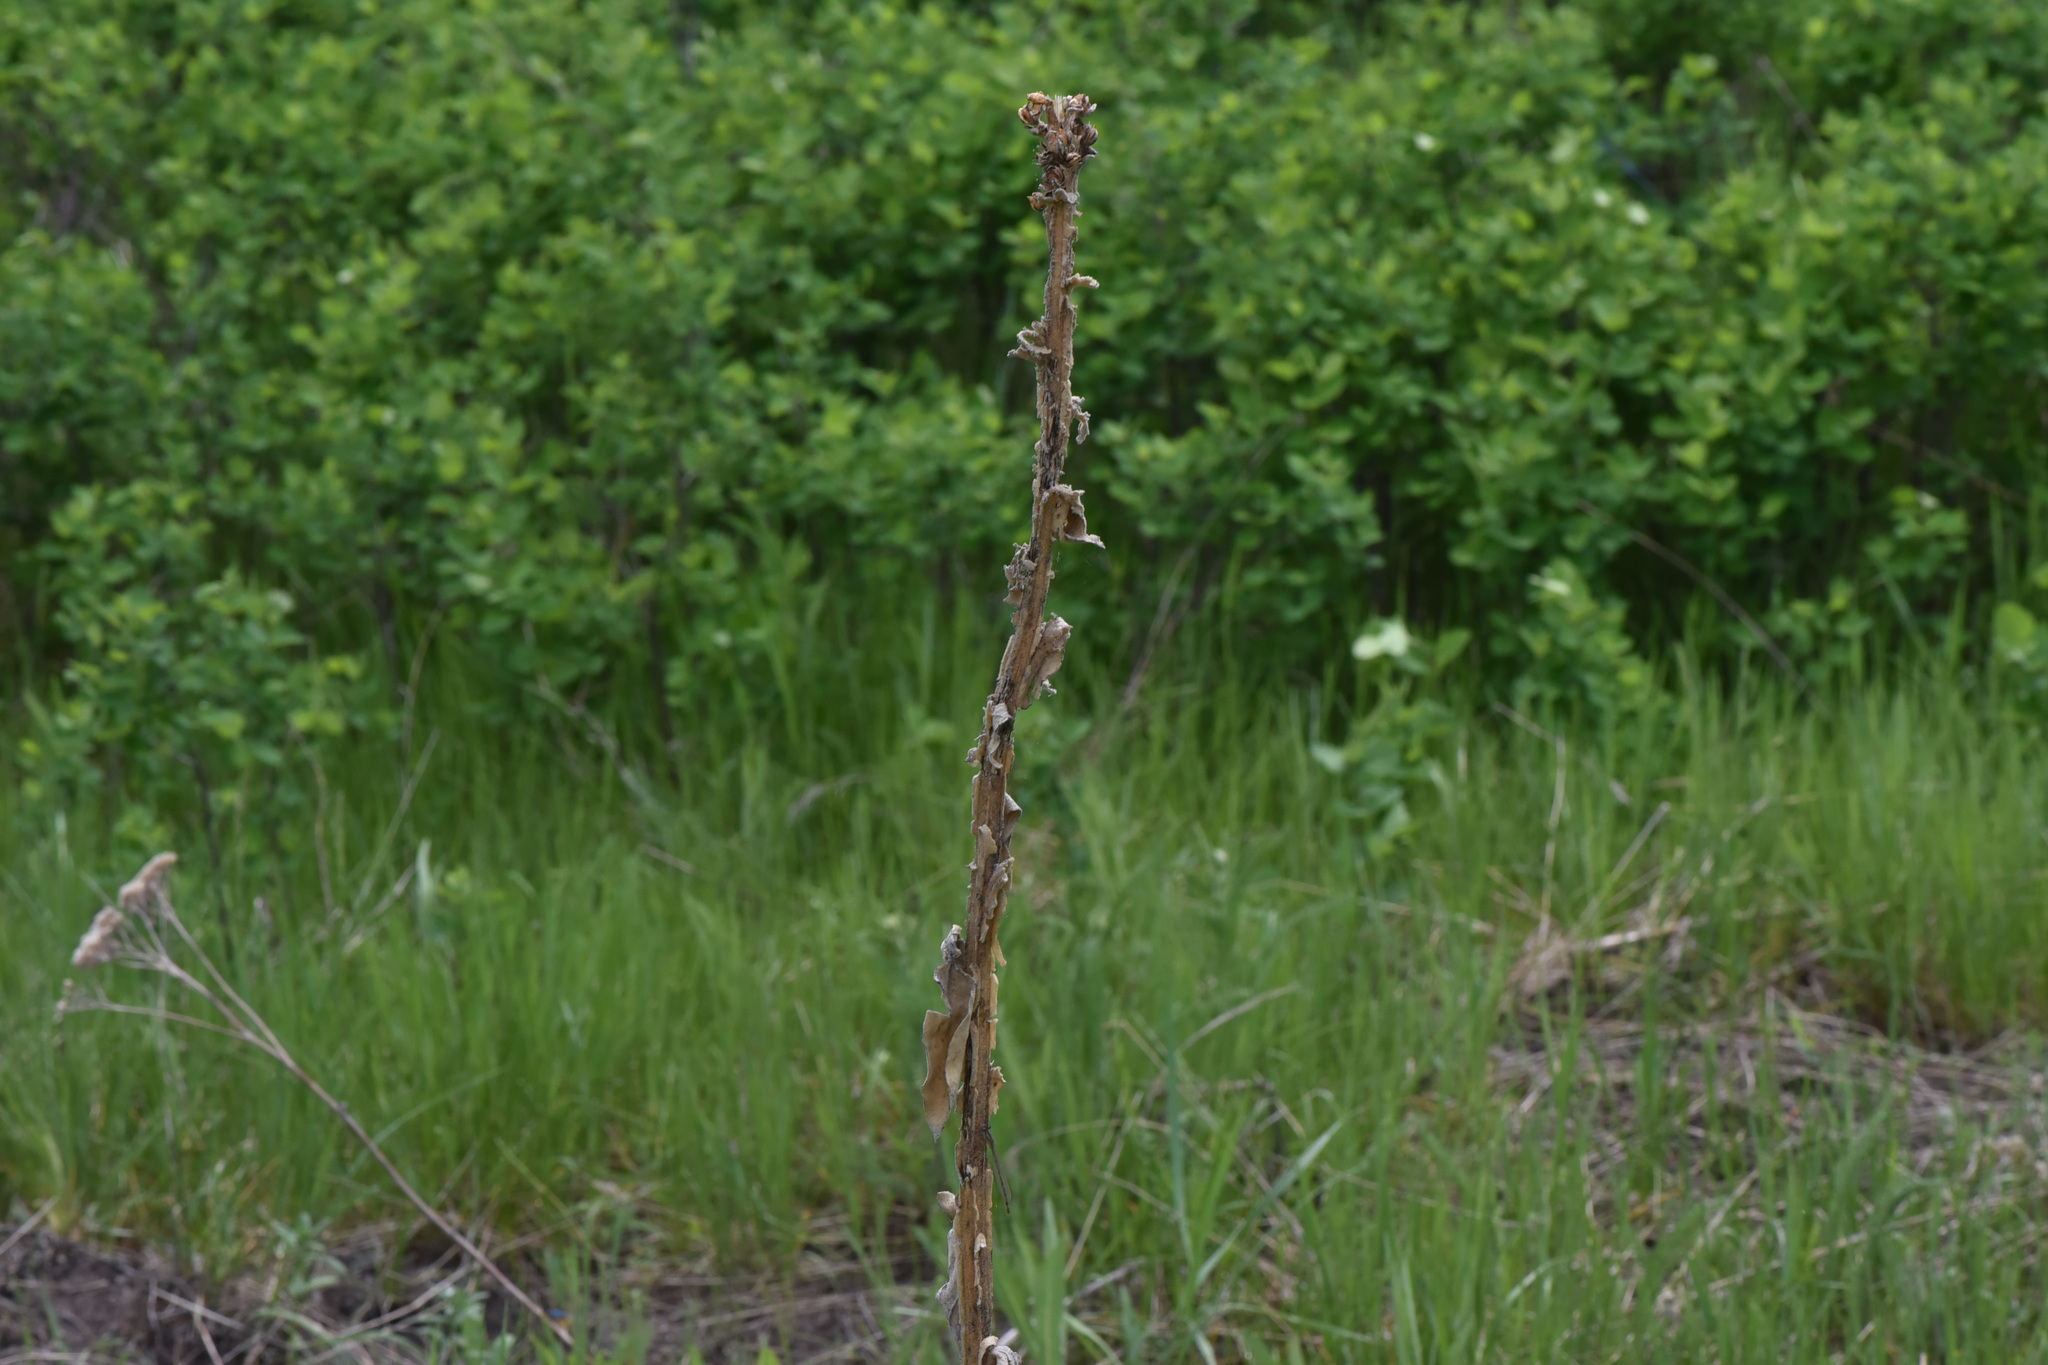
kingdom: Plantae
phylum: Tracheophyta
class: Magnoliopsida
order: Lamiales
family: Scrophulariaceae
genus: Verbascum
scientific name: Verbascum thapsus
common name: Common mullein
